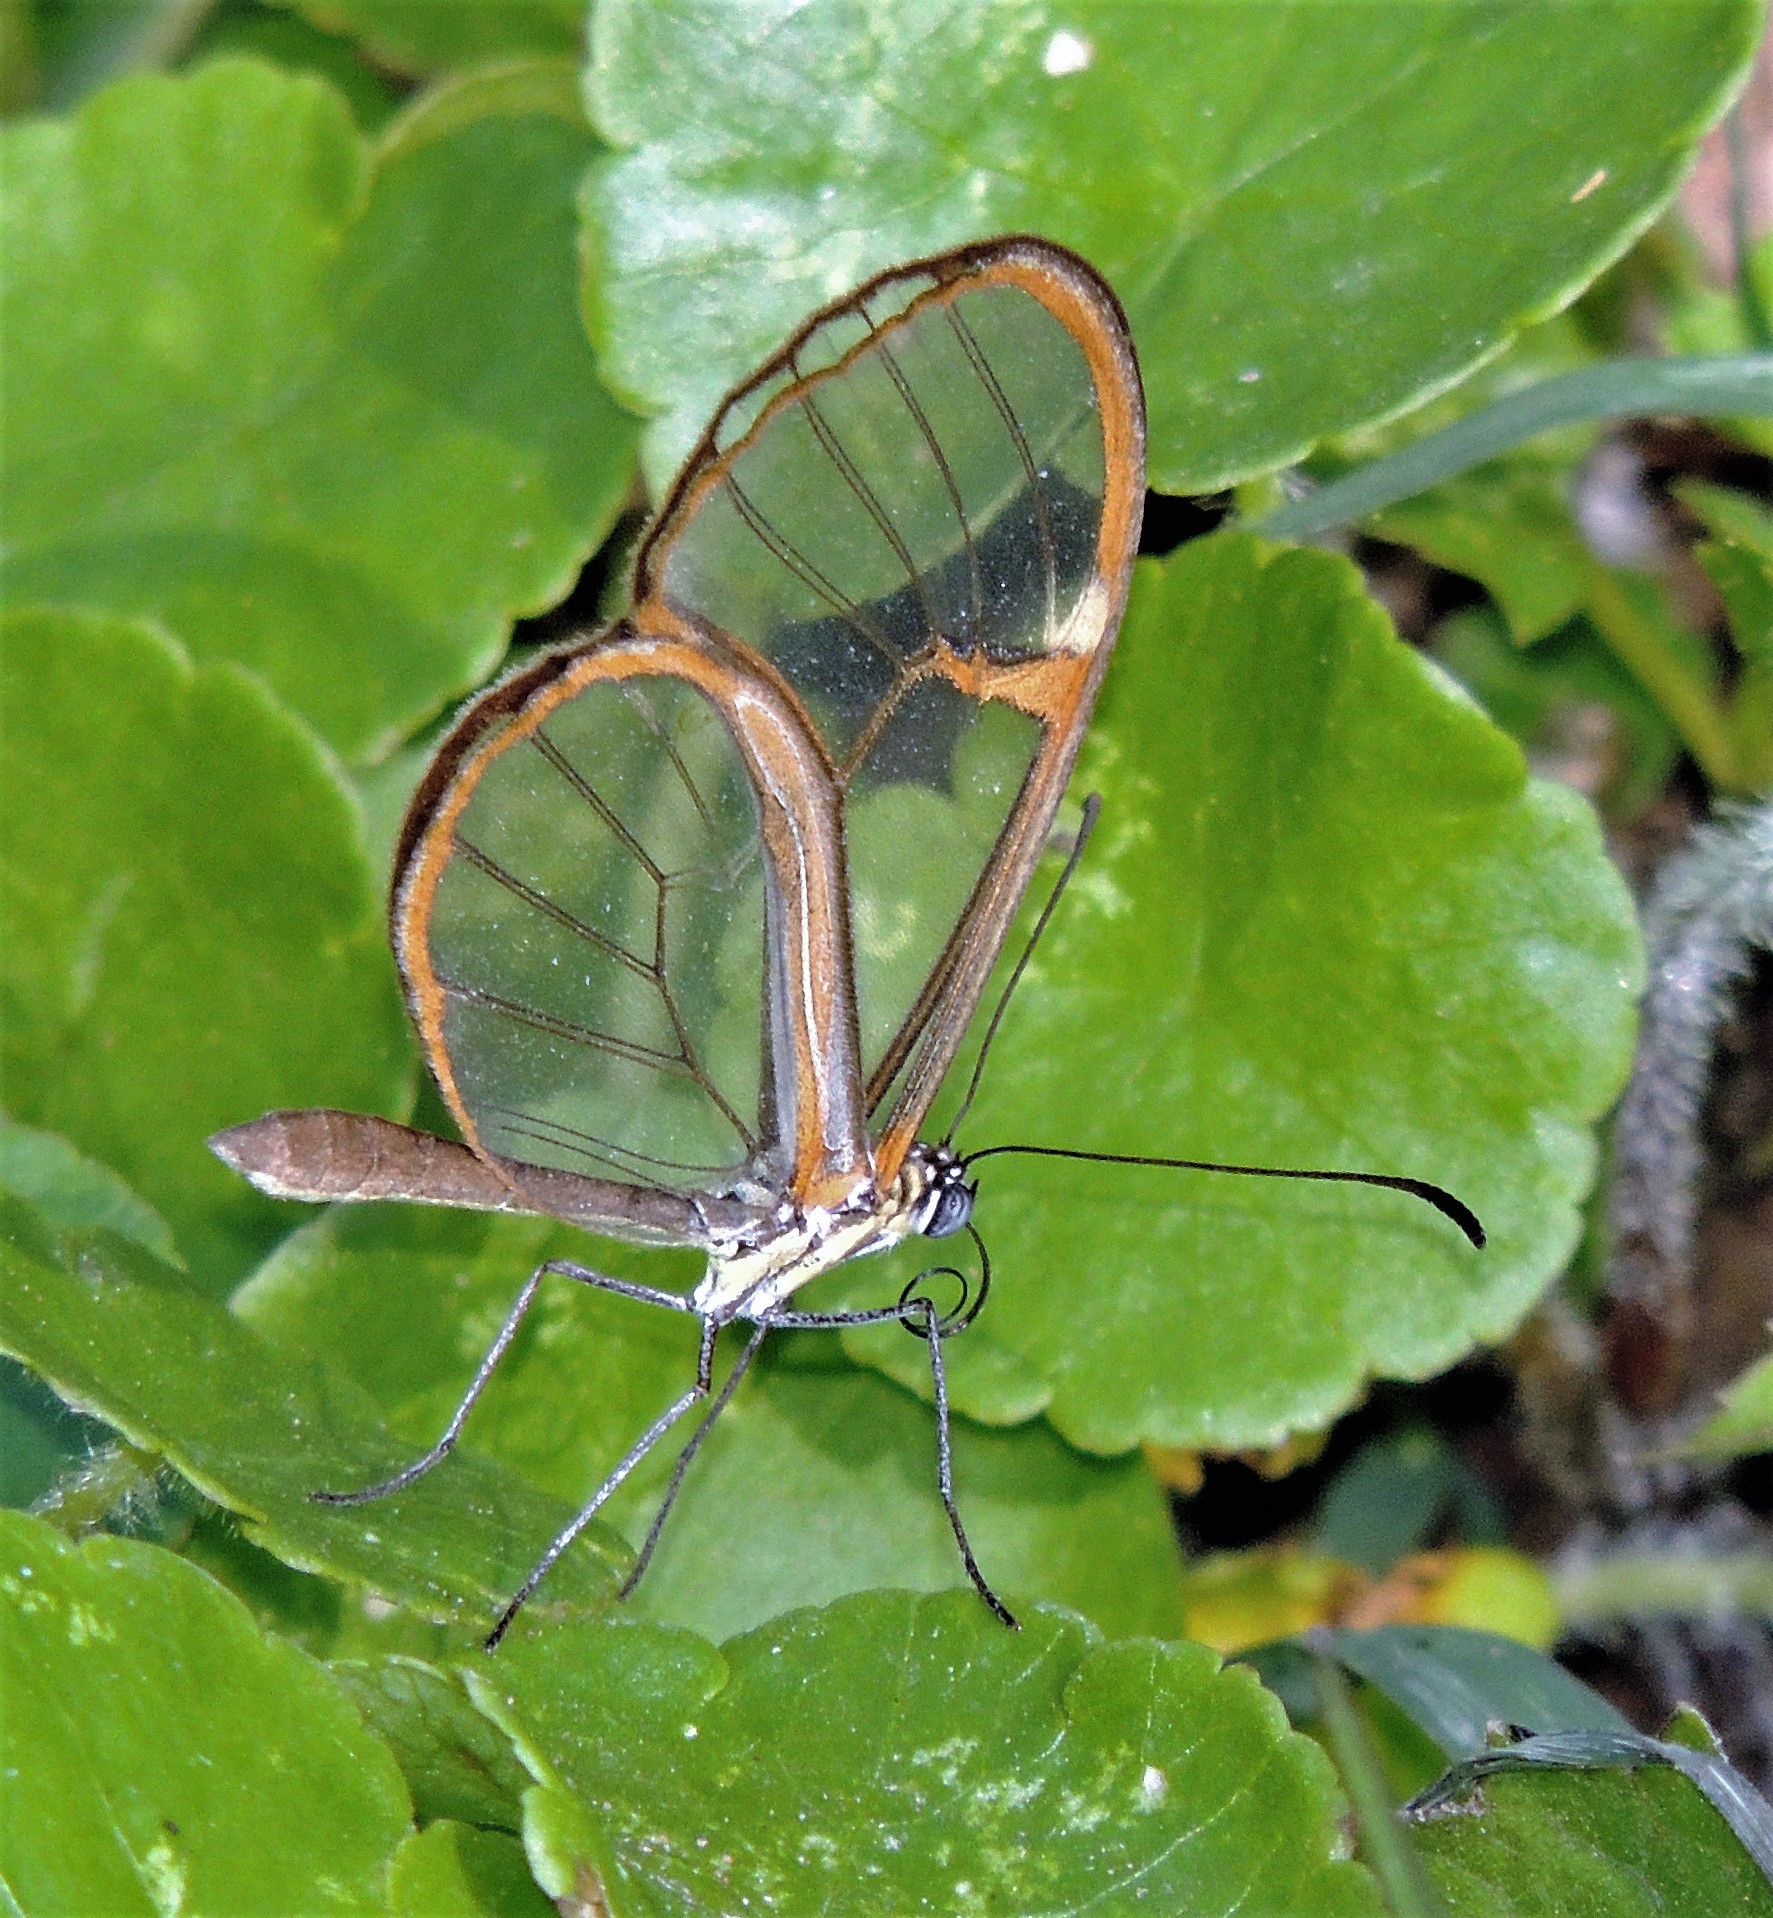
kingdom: Animalia
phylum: Arthropoda
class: Insecta
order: Lepidoptera
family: Nymphalidae
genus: Episcada
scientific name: Episcada hymenaea
